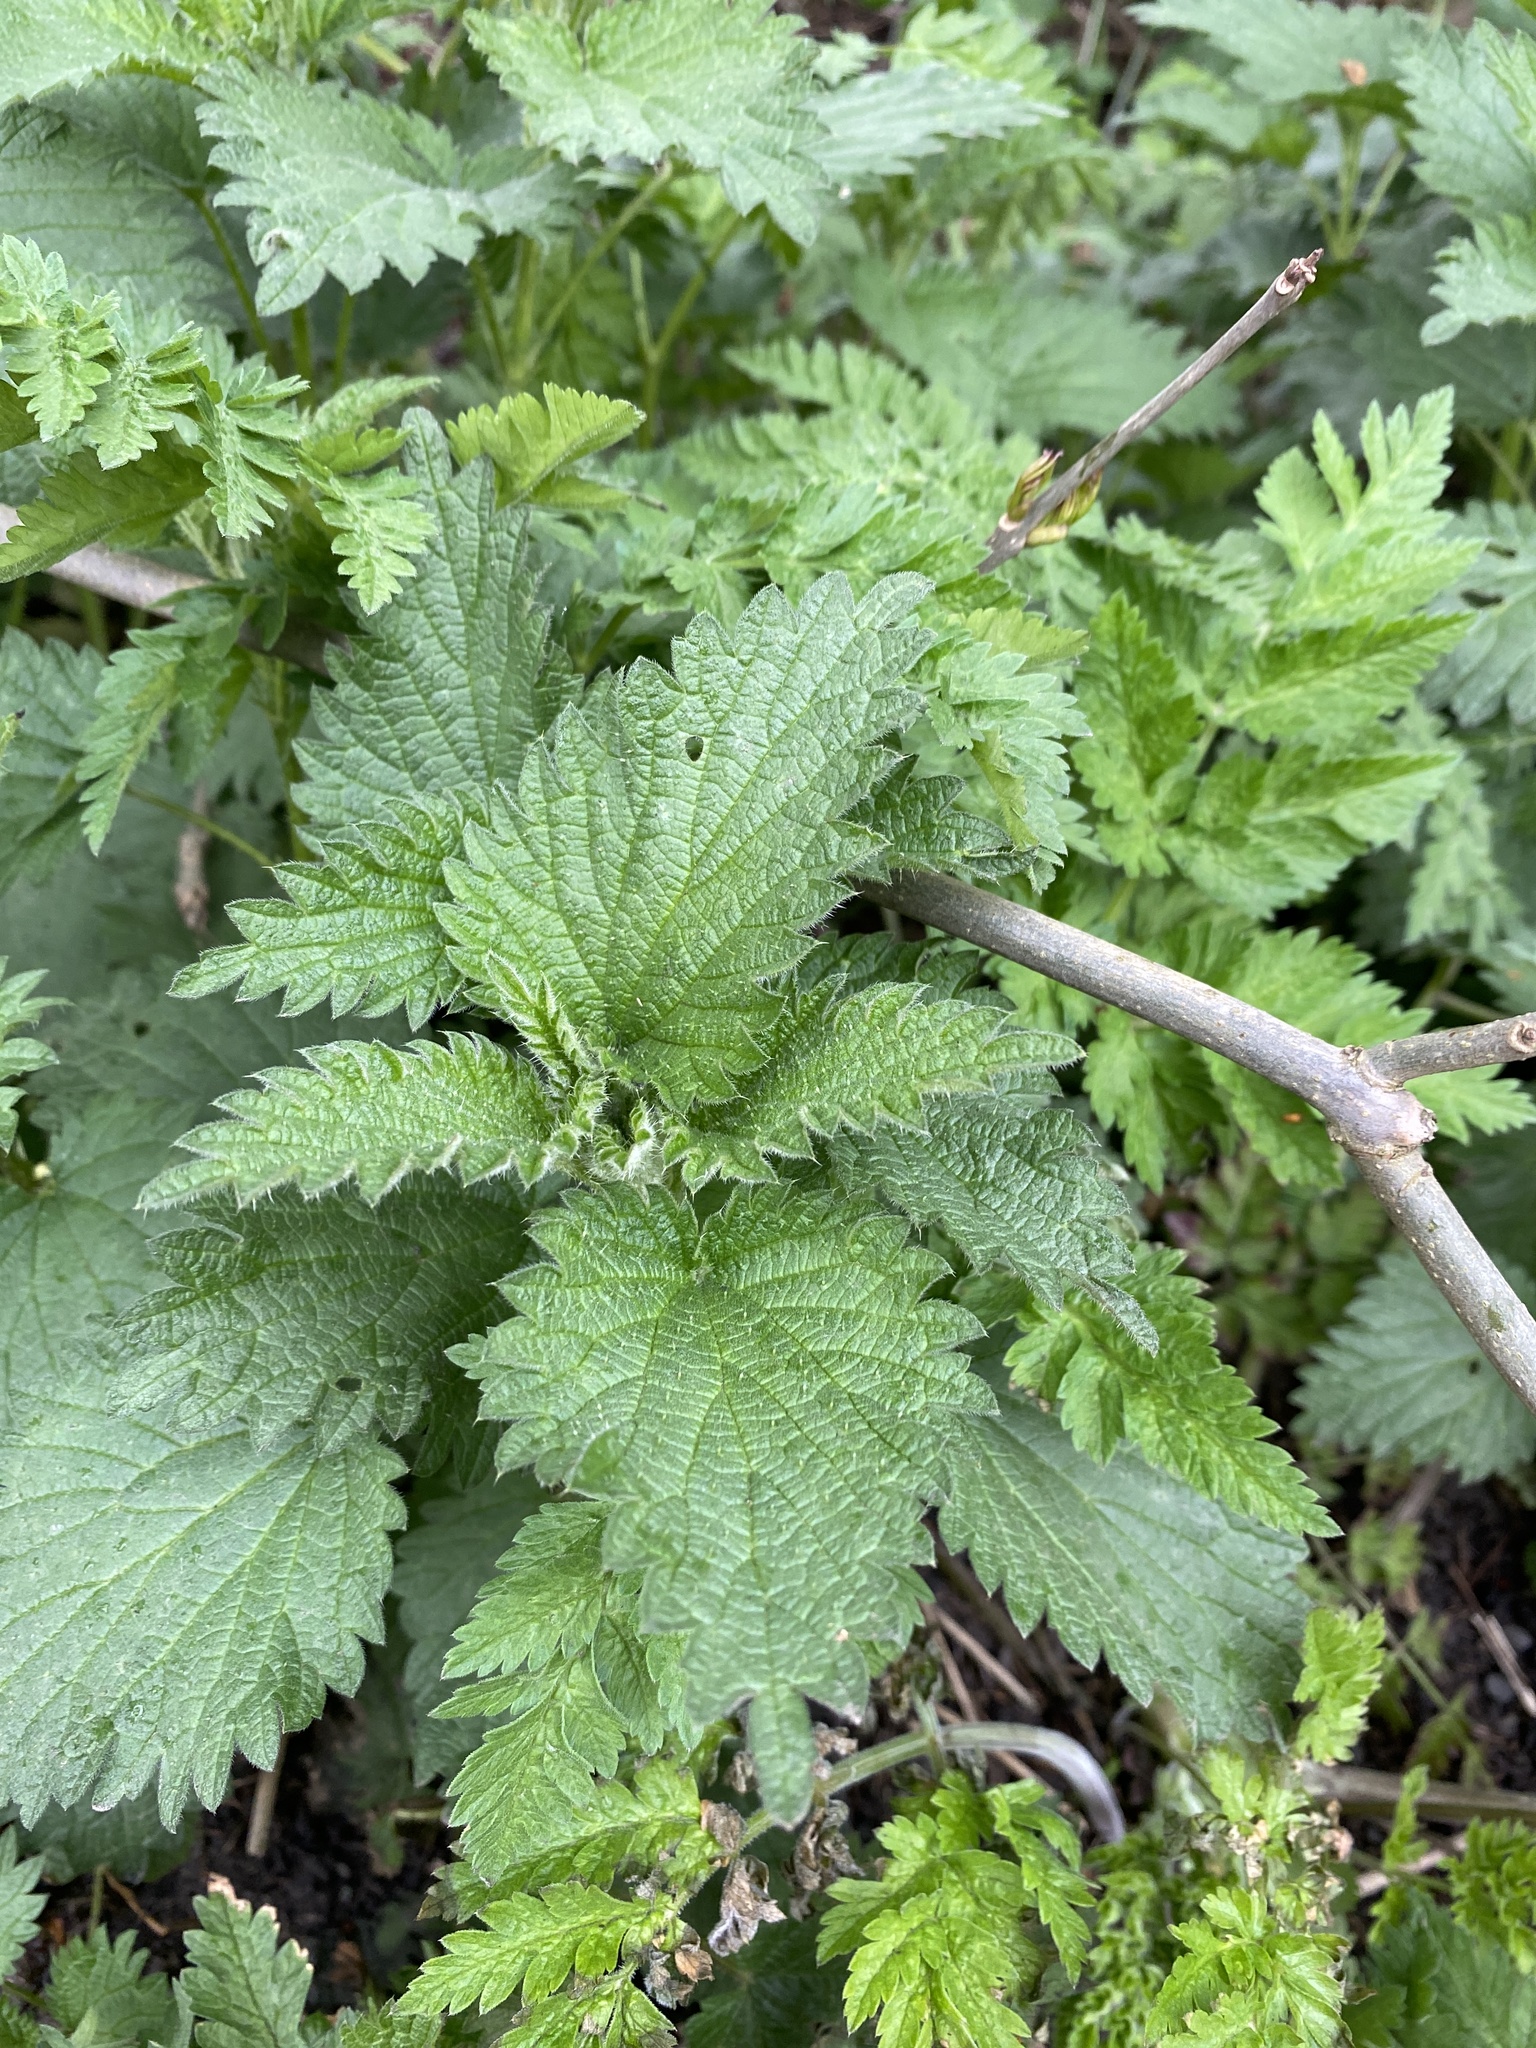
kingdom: Plantae
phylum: Tracheophyta
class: Magnoliopsida
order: Rosales
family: Urticaceae
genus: Urtica
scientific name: Urtica dioica
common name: Common nettle
